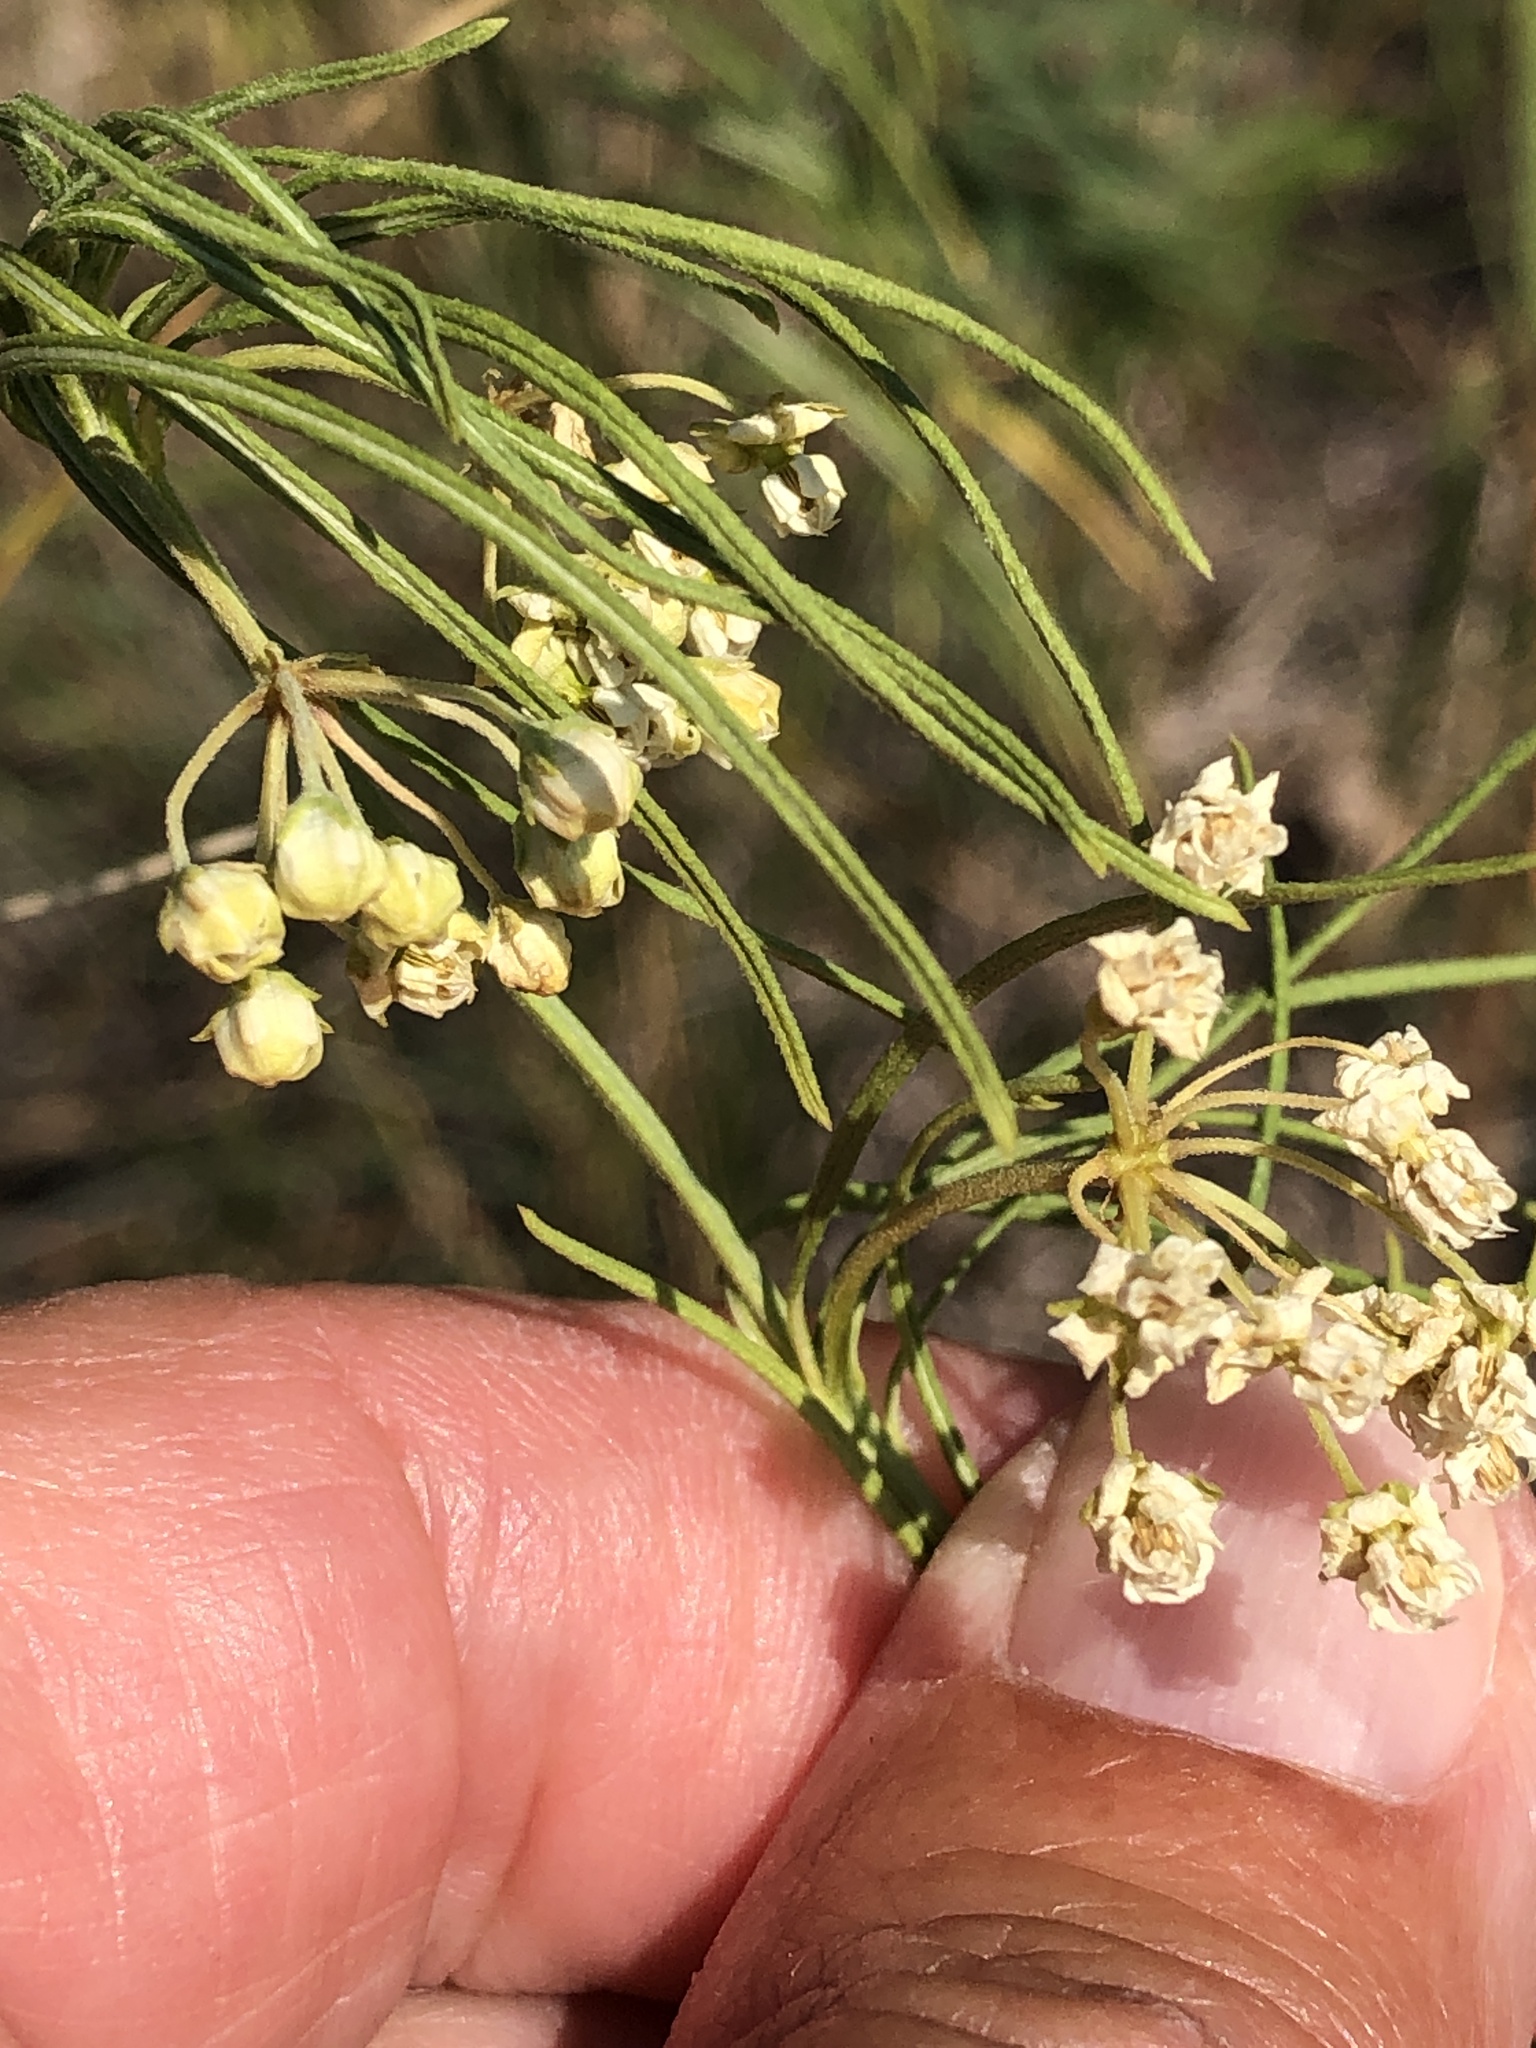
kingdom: Plantae
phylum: Tracheophyta
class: Magnoliopsida
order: Gentianales
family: Apocynaceae
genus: Asclepias
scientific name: Asclepias verticillata
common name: Eastern whorled milkweed
